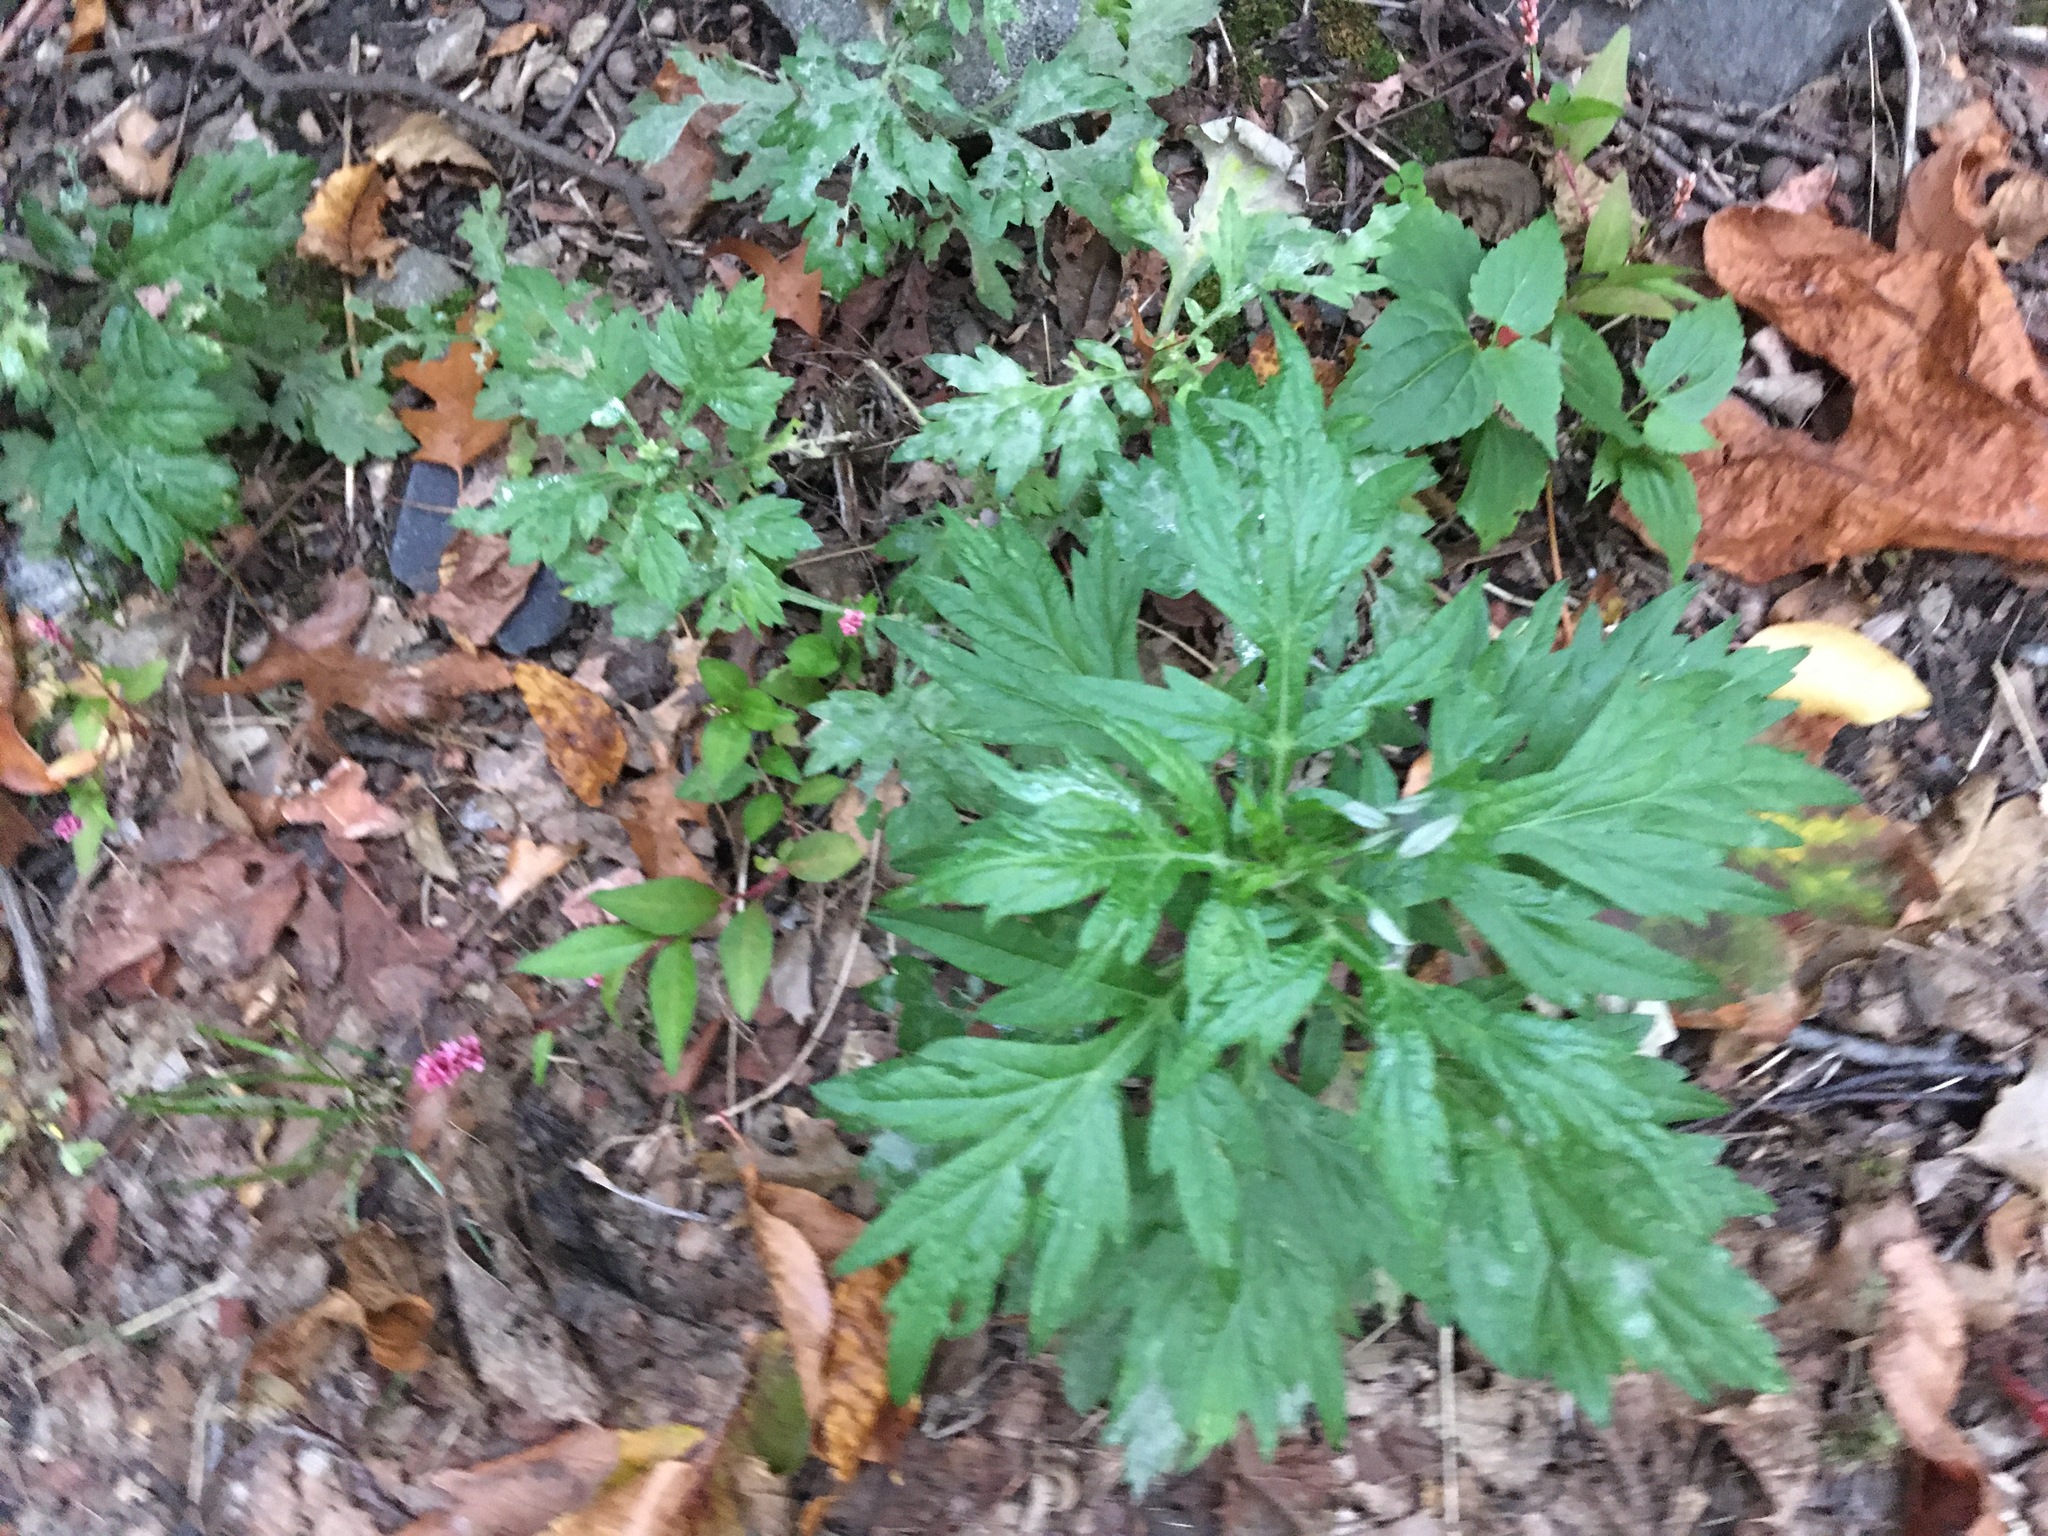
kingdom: Plantae
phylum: Tracheophyta
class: Magnoliopsida
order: Asterales
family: Asteraceae
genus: Artemisia
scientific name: Artemisia vulgaris
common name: Mugwort
